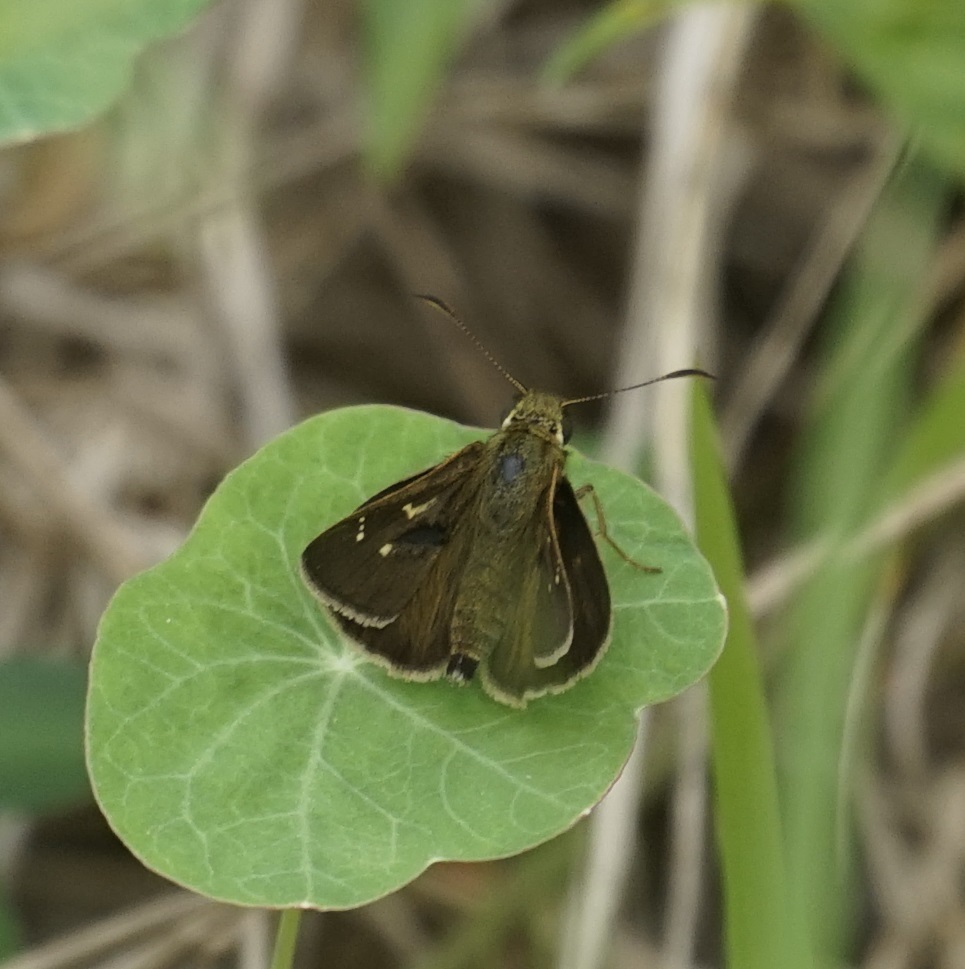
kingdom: Animalia
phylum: Arthropoda
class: Insecta
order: Lepidoptera
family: Hesperiidae
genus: Toxidia
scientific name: Toxidia
